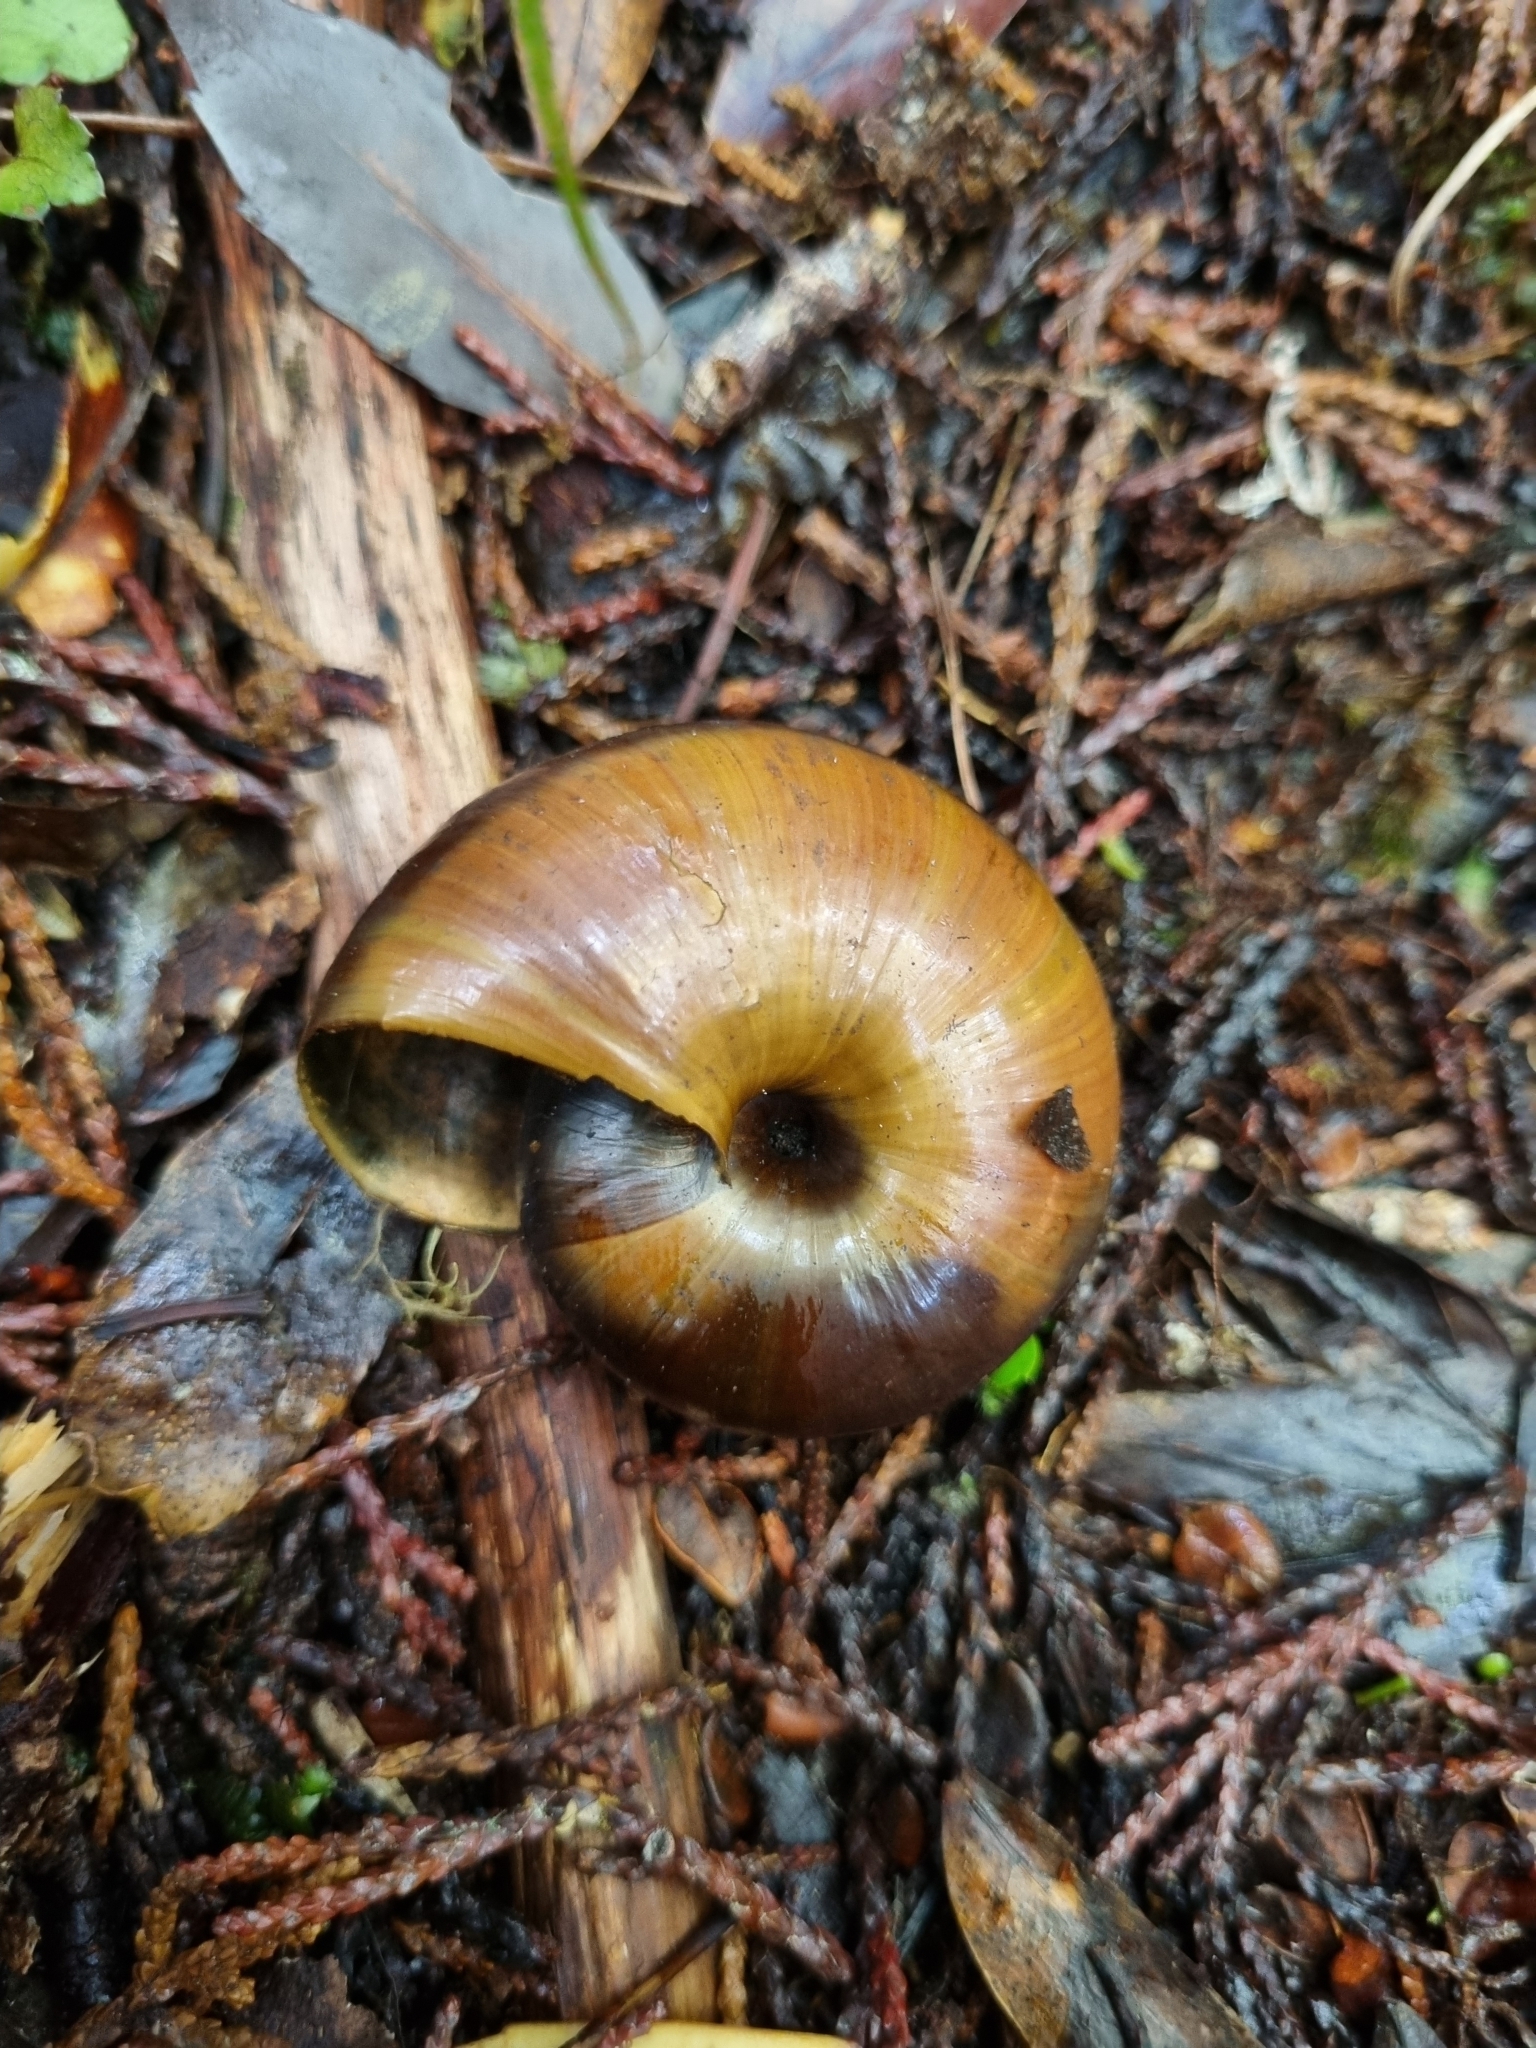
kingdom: Animalia
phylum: Mollusca
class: Gastropoda
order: Stylommatophora
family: Rhytididae
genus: Powelliphanta
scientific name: Powelliphanta superba
